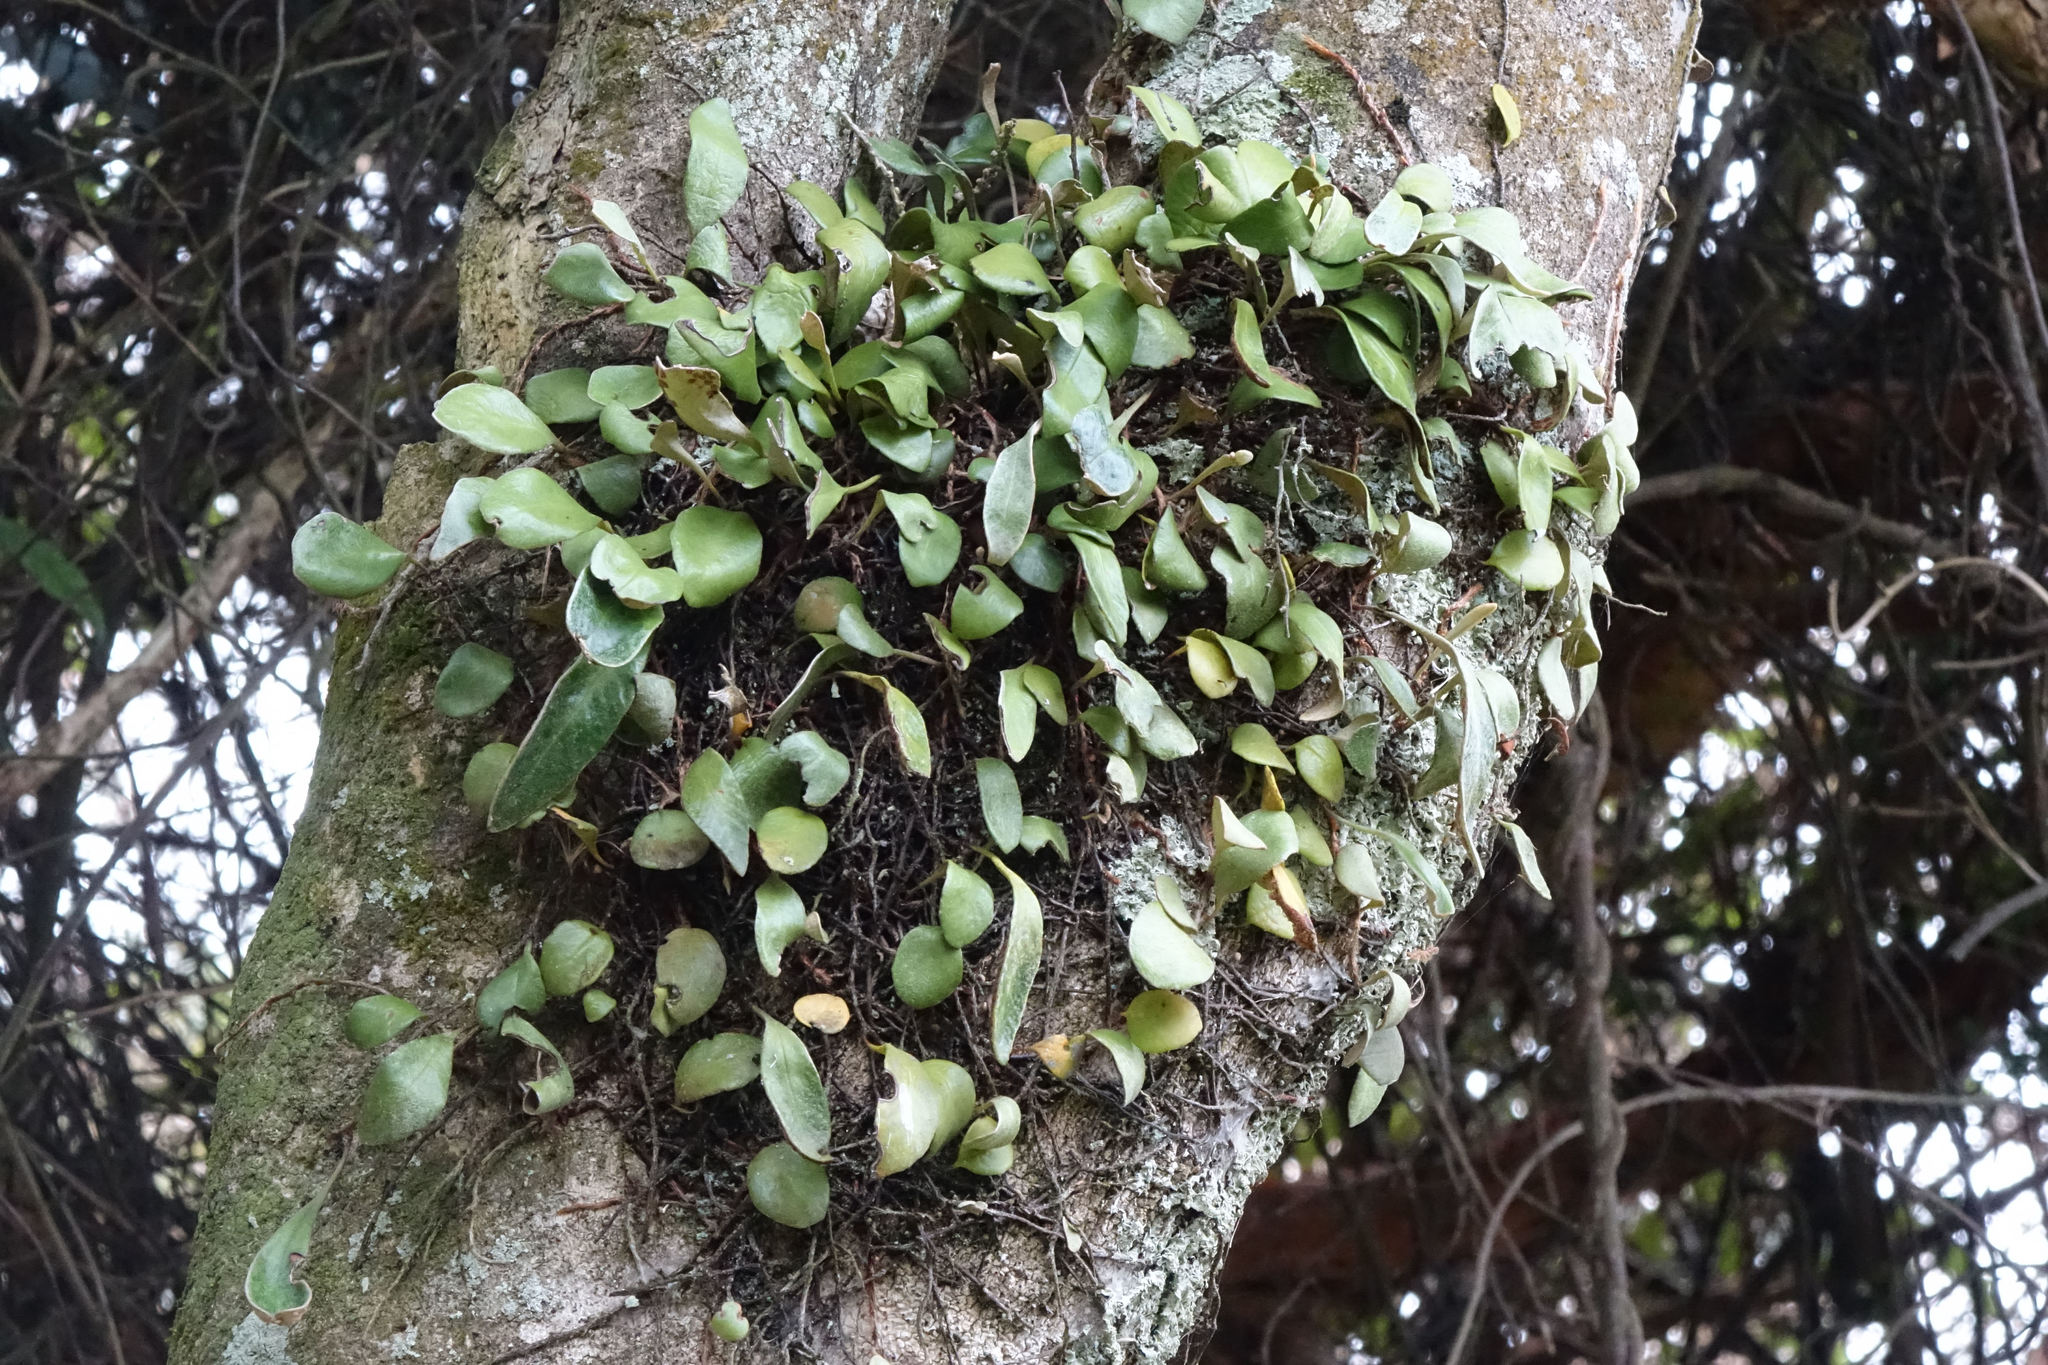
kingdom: Plantae
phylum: Tracheophyta
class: Polypodiopsida
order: Polypodiales
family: Polypodiaceae
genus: Pyrrosia
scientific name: Pyrrosia eleagnifolia
